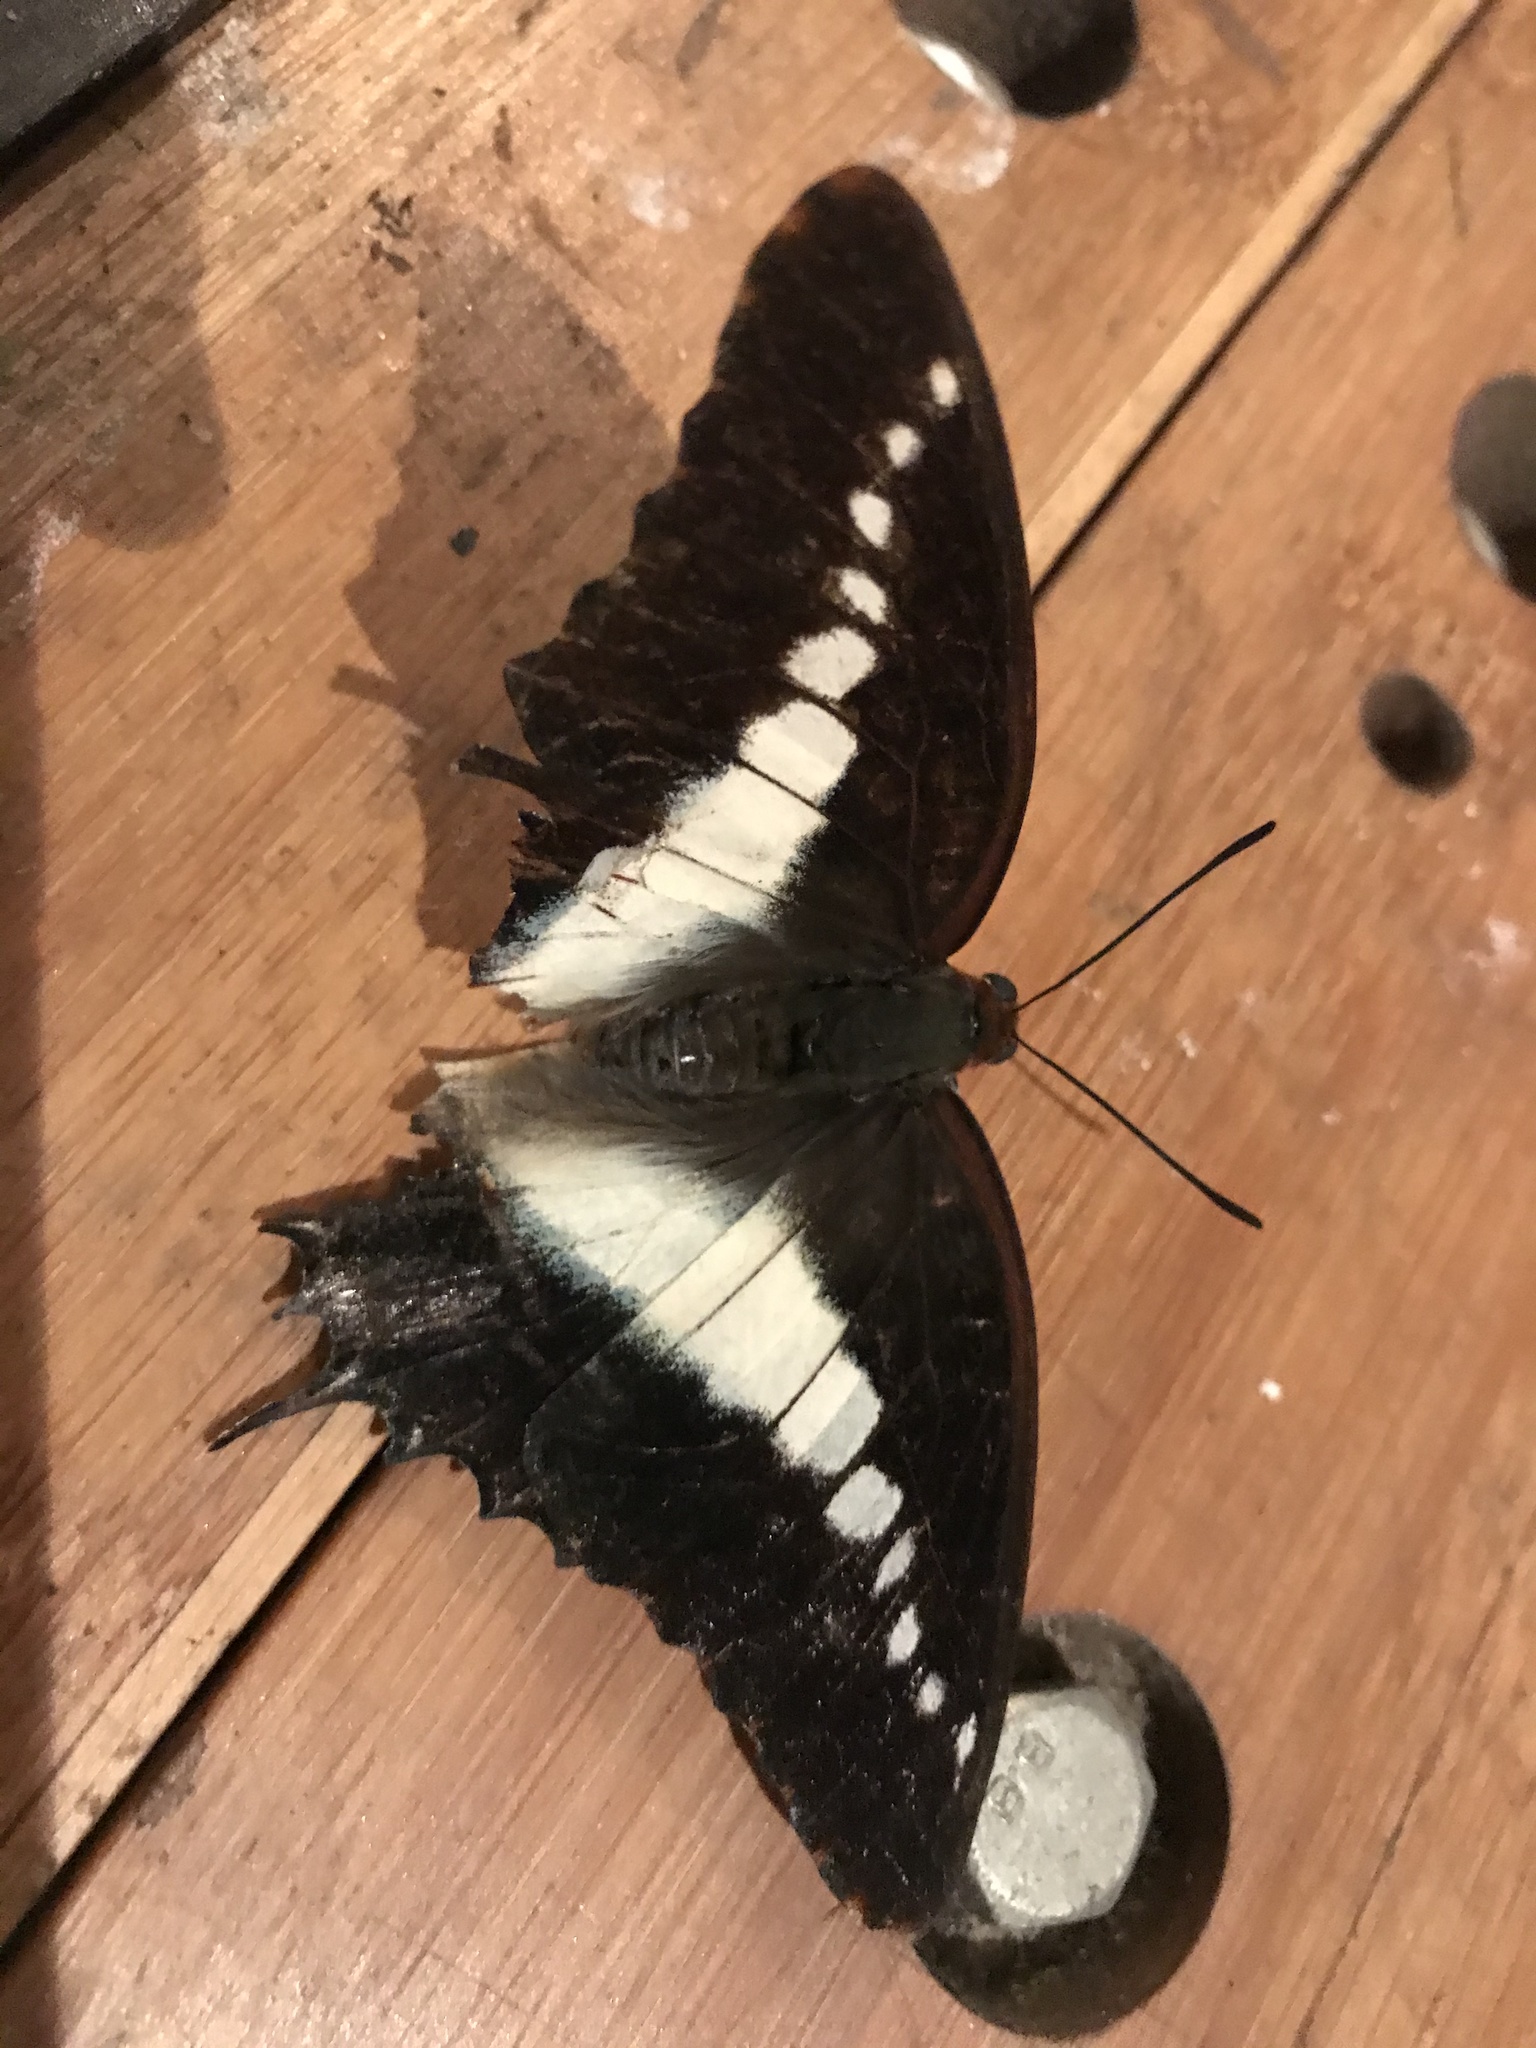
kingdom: Animalia
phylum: Arthropoda
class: Insecta
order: Lepidoptera
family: Nymphalidae
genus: Charaxes
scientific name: Charaxes brutus
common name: White-barred charaxes
